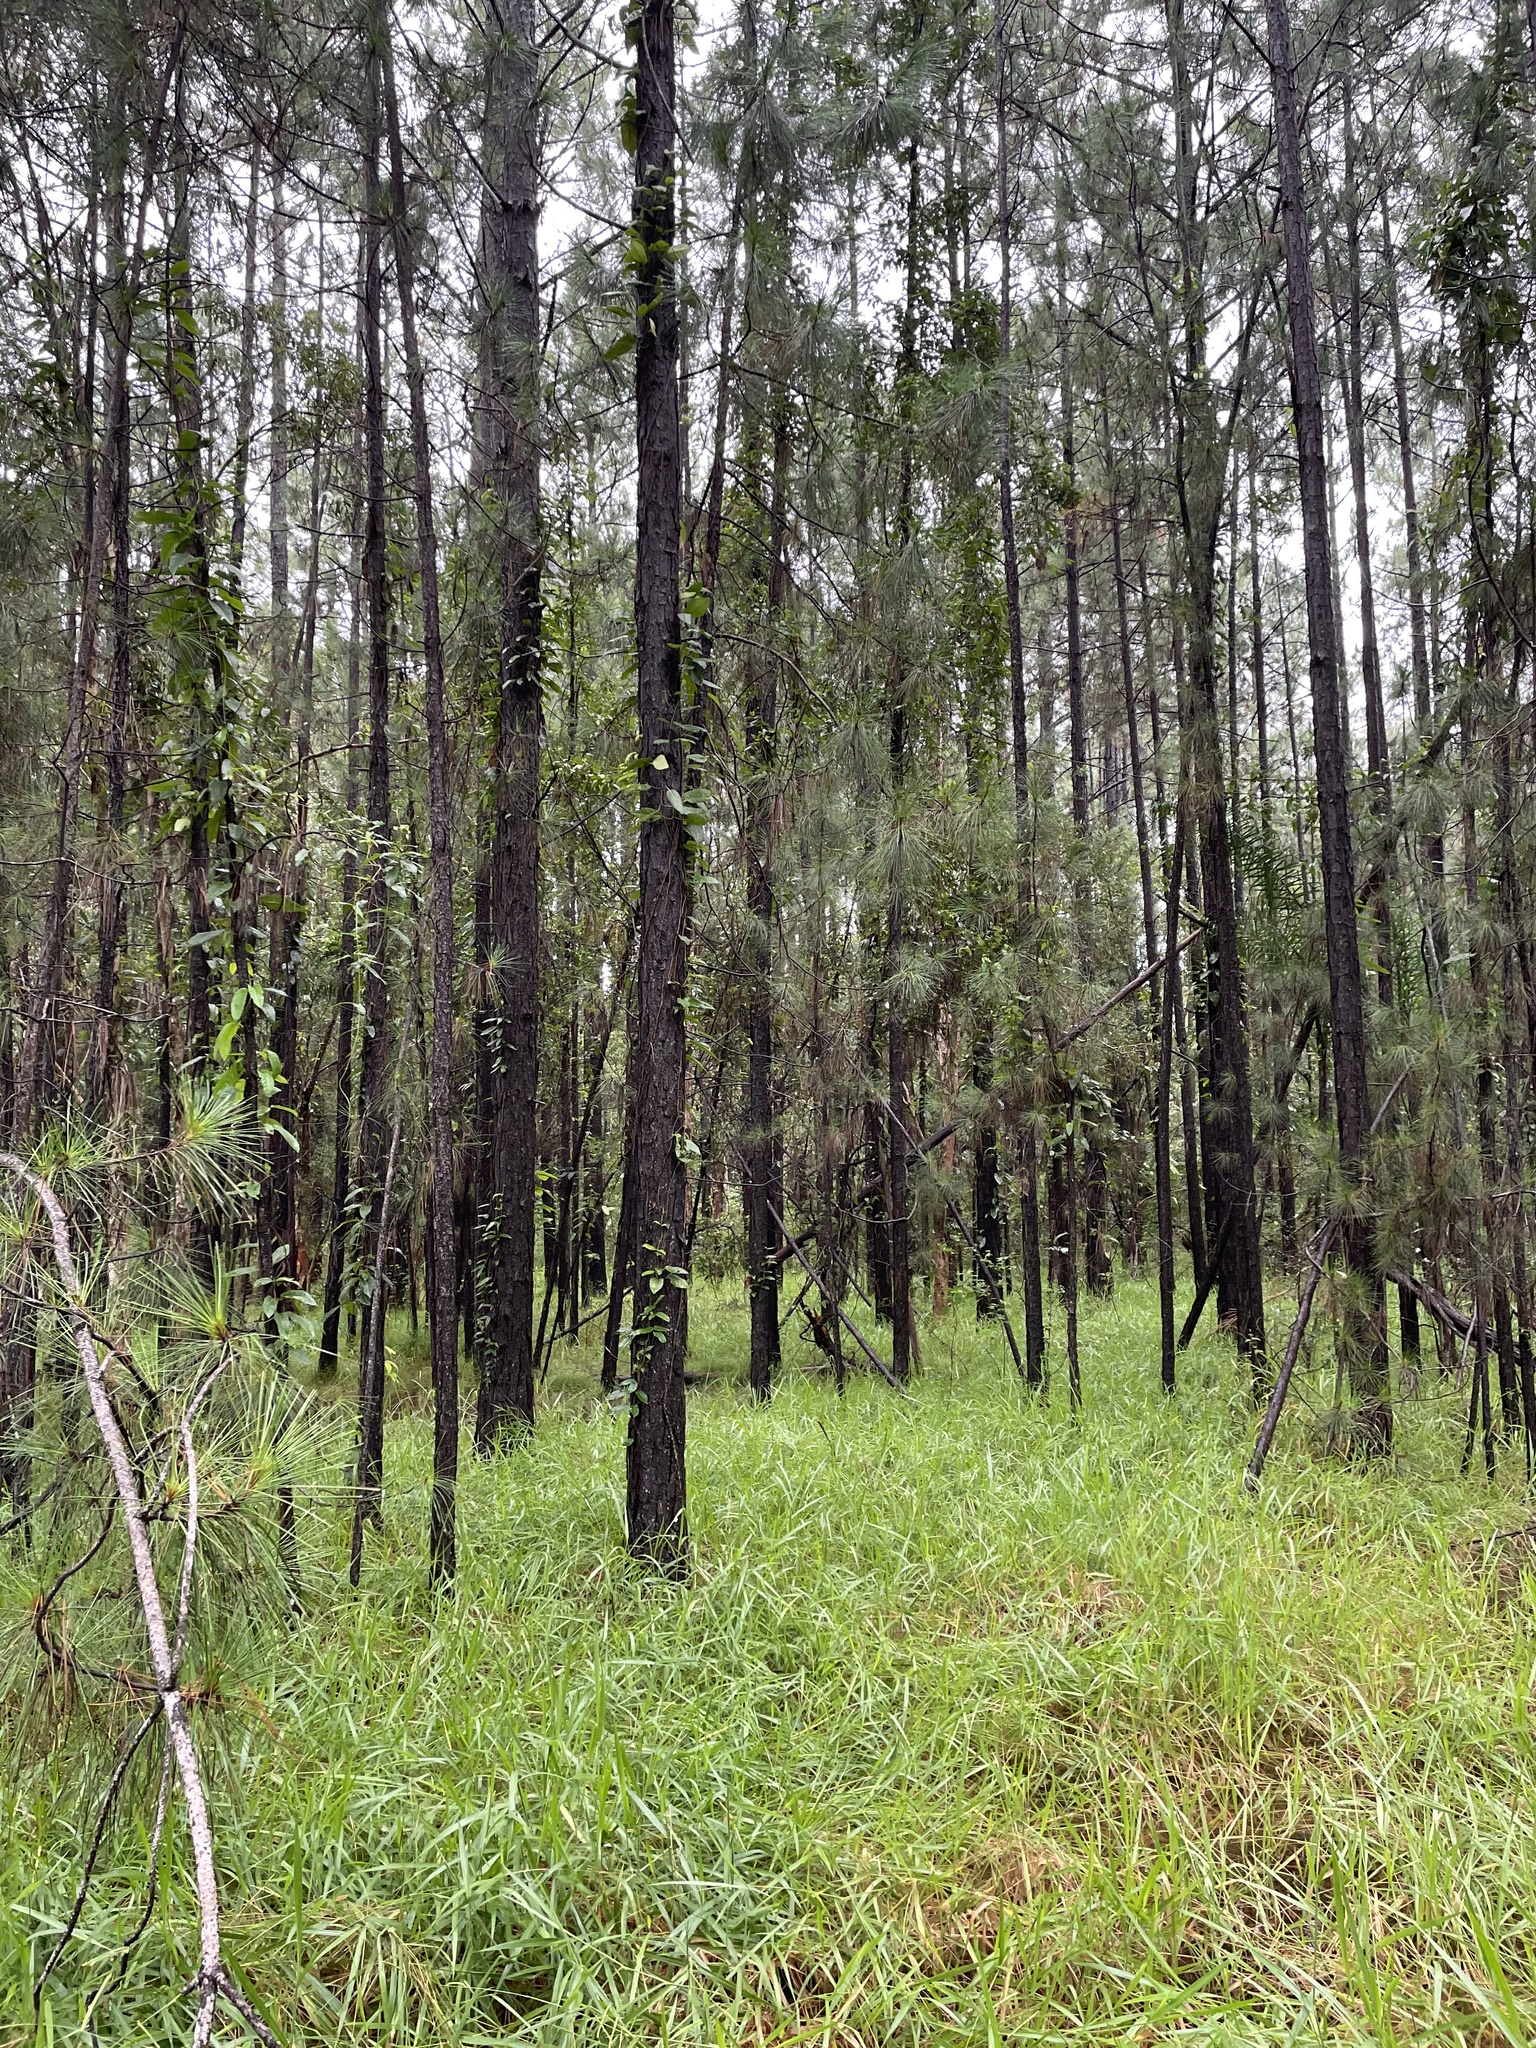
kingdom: Plantae
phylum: Tracheophyta
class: Pinopsida
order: Pinales
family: Pinaceae
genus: Pinus
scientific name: Pinus elliottii
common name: Slash pine
